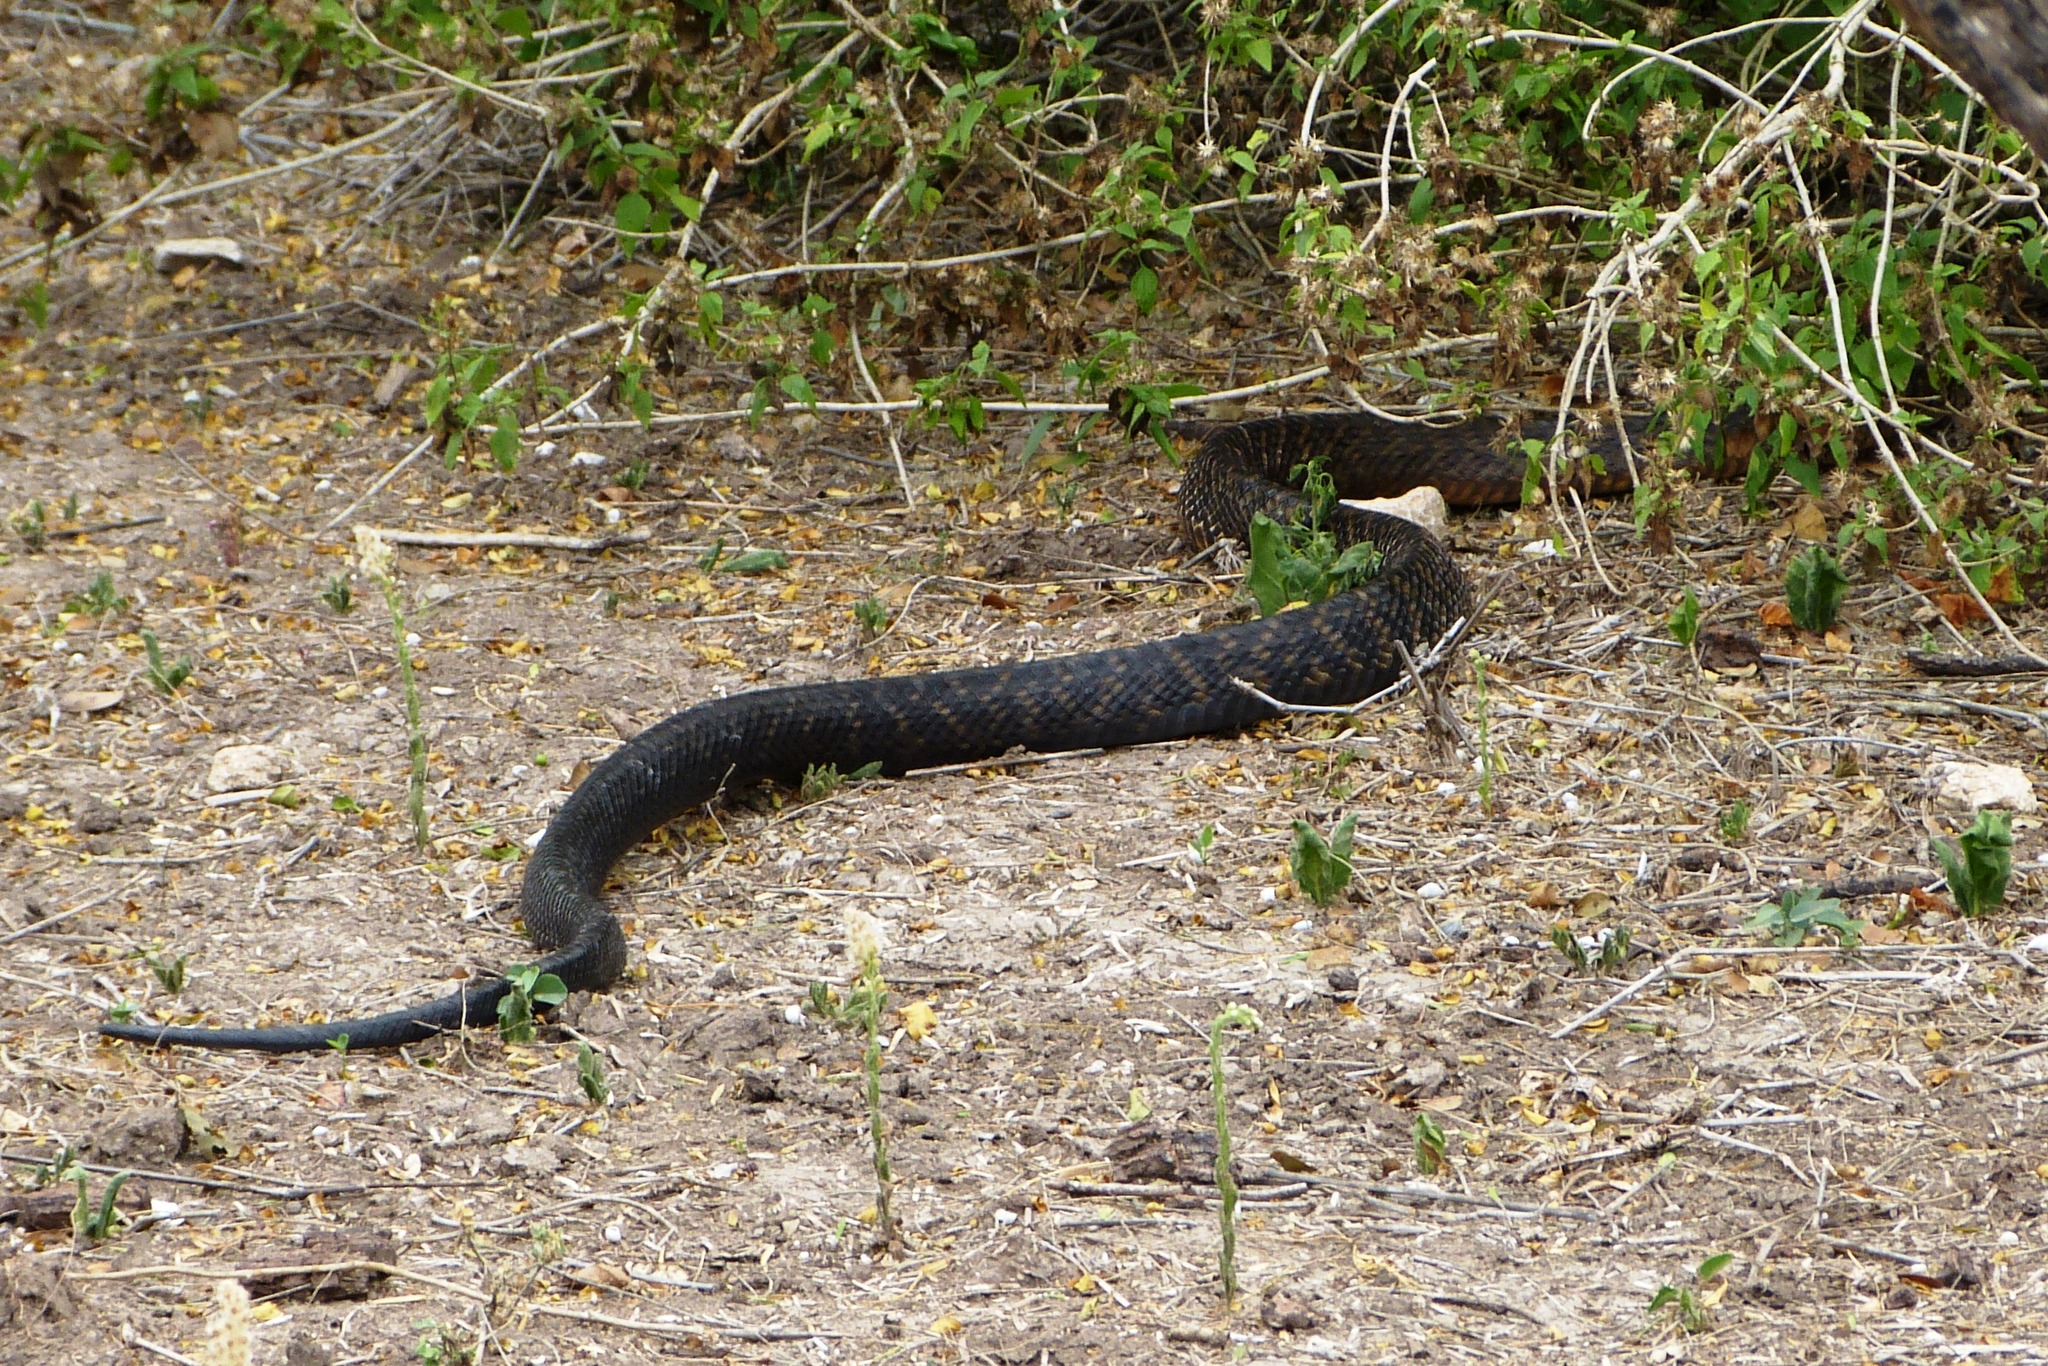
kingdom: Animalia
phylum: Chordata
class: Squamata
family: Colubridae
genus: Drymarchon
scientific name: Drymarchon melanurus
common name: Central american indigo snake
